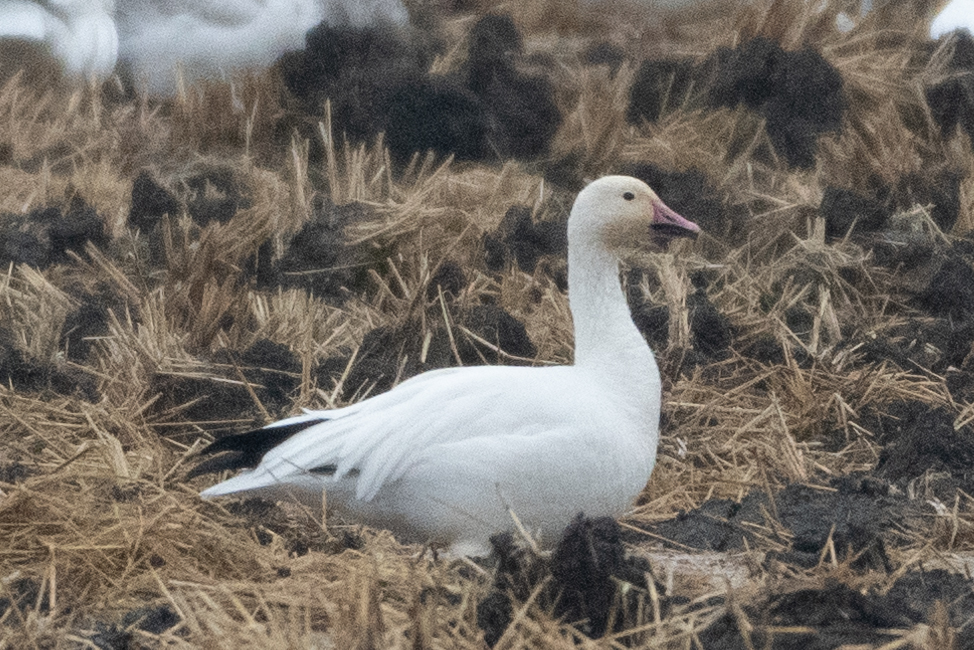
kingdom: Animalia
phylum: Chordata
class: Aves
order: Anseriformes
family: Anatidae
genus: Anser
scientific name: Anser caerulescens
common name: Snow goose
